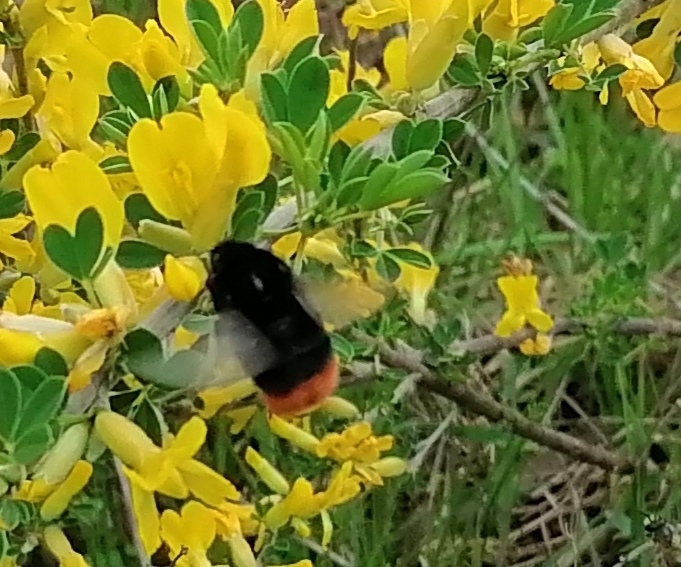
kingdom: Animalia
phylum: Arthropoda
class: Insecta
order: Hymenoptera
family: Apidae
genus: Bombus
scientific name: Bombus lapidarius
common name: Large red-tailed humble-bee
